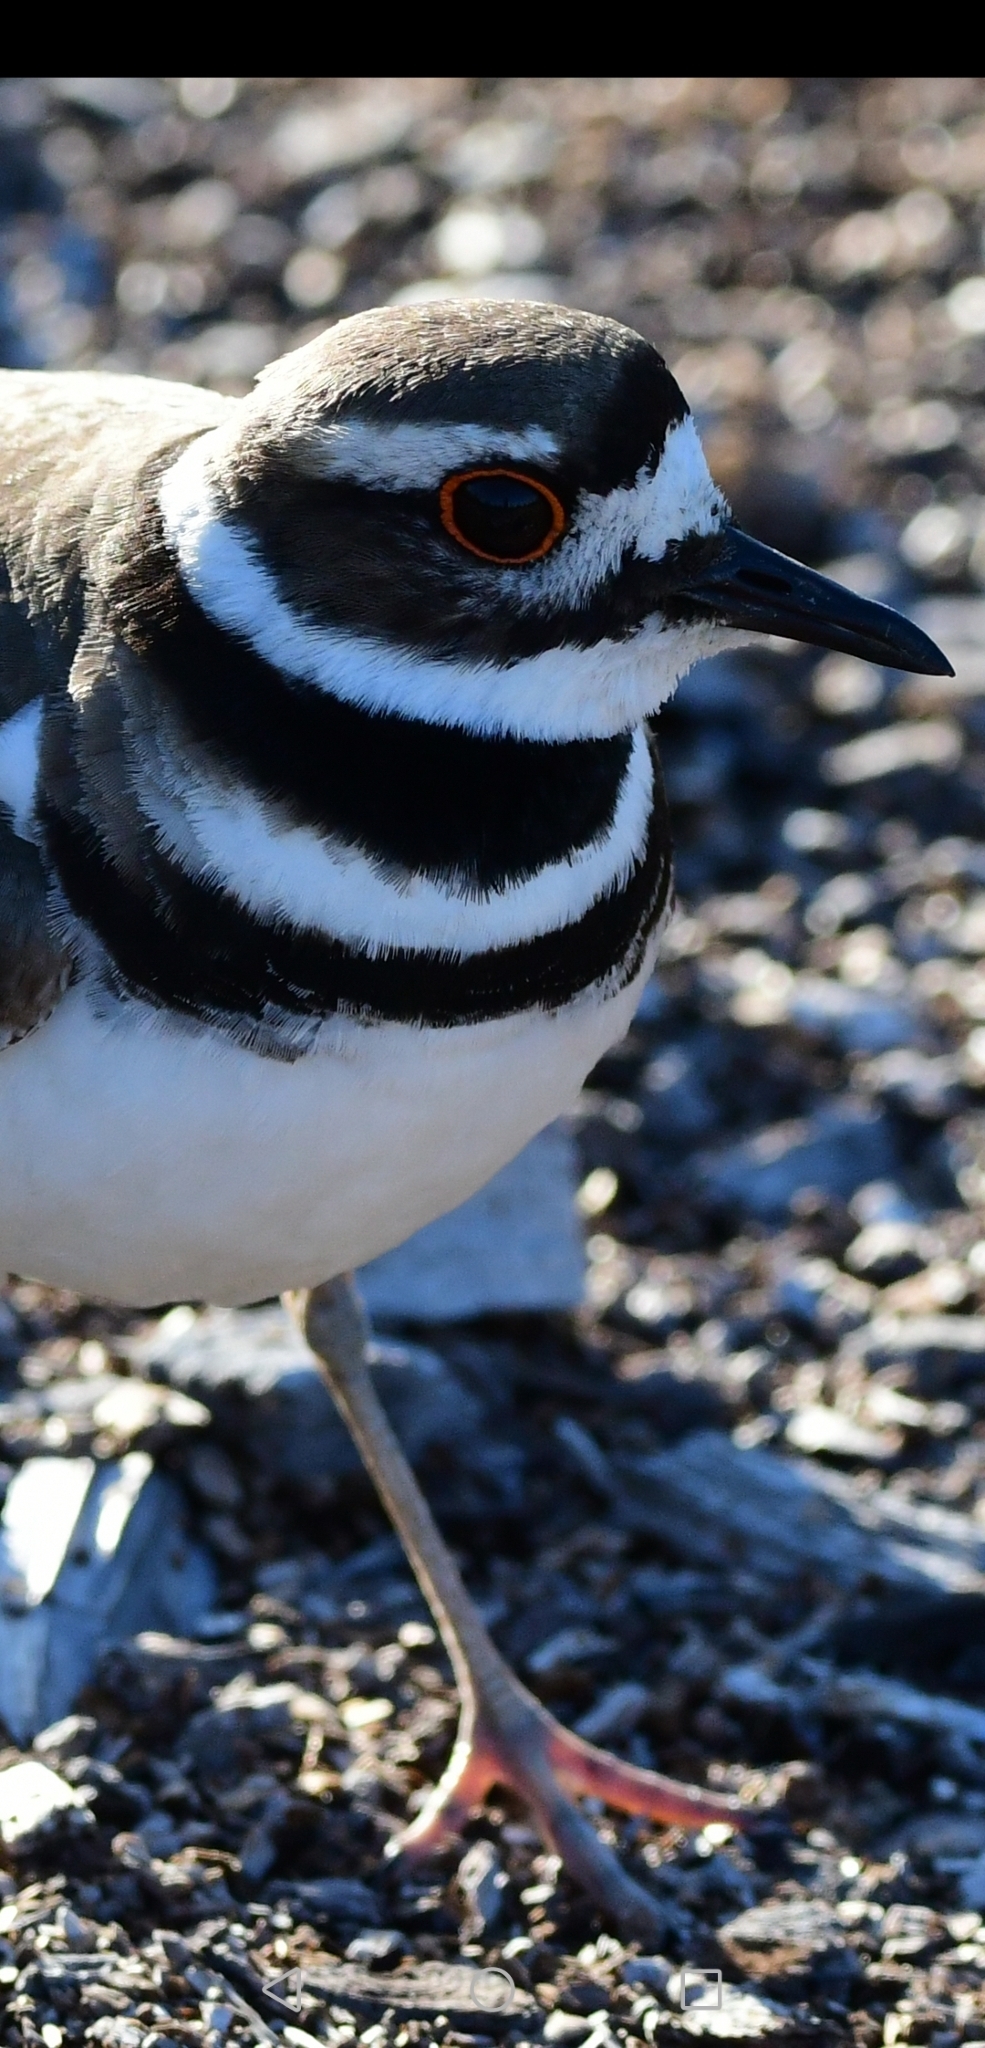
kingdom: Animalia
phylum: Chordata
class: Aves
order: Charadriiformes
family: Charadriidae
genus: Charadrius
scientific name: Charadrius vociferus
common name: Killdeer
